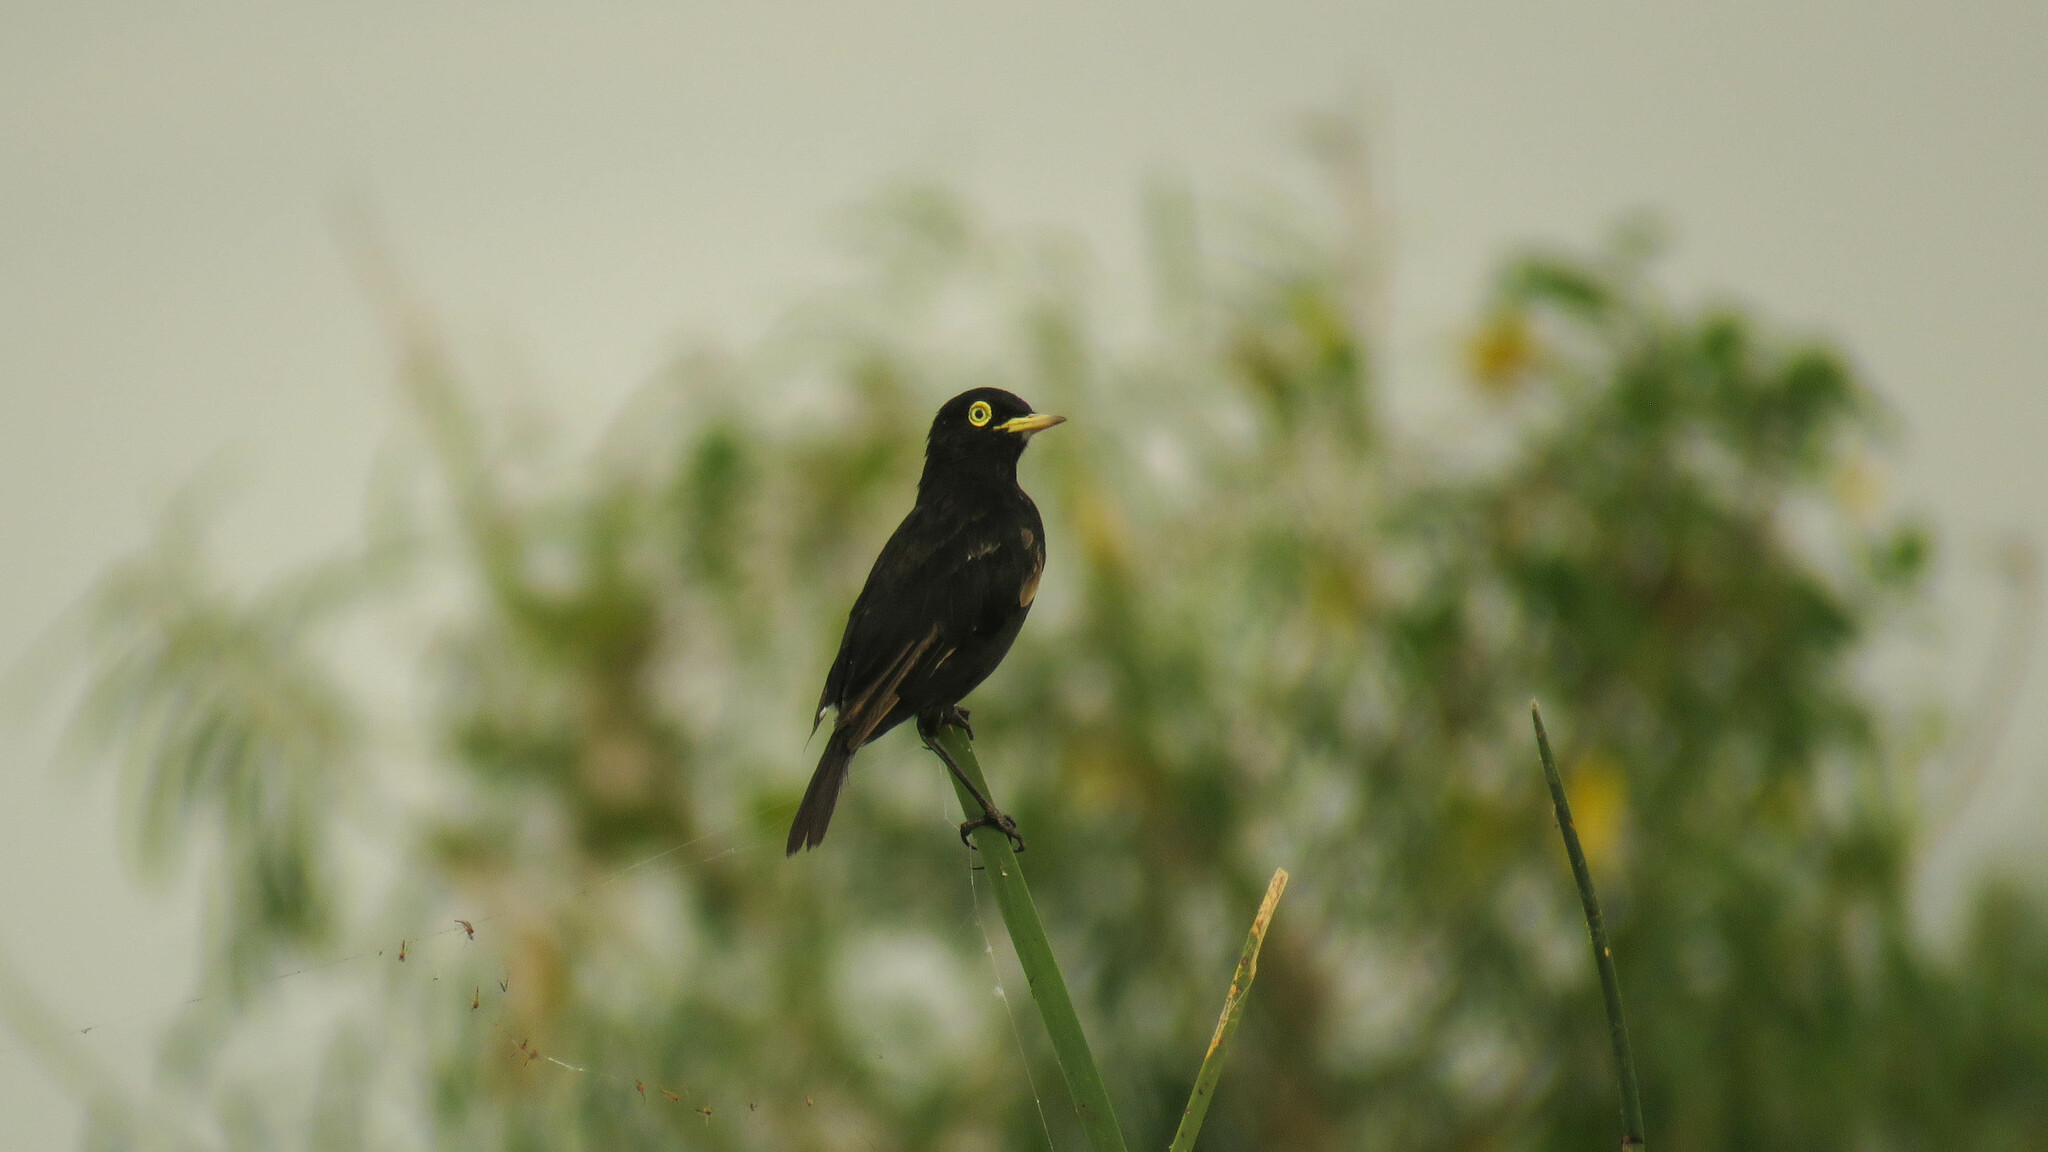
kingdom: Animalia
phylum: Chordata
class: Aves
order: Passeriformes
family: Tyrannidae
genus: Hymenops
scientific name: Hymenops perspicillatus
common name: Spectacled tyrant
